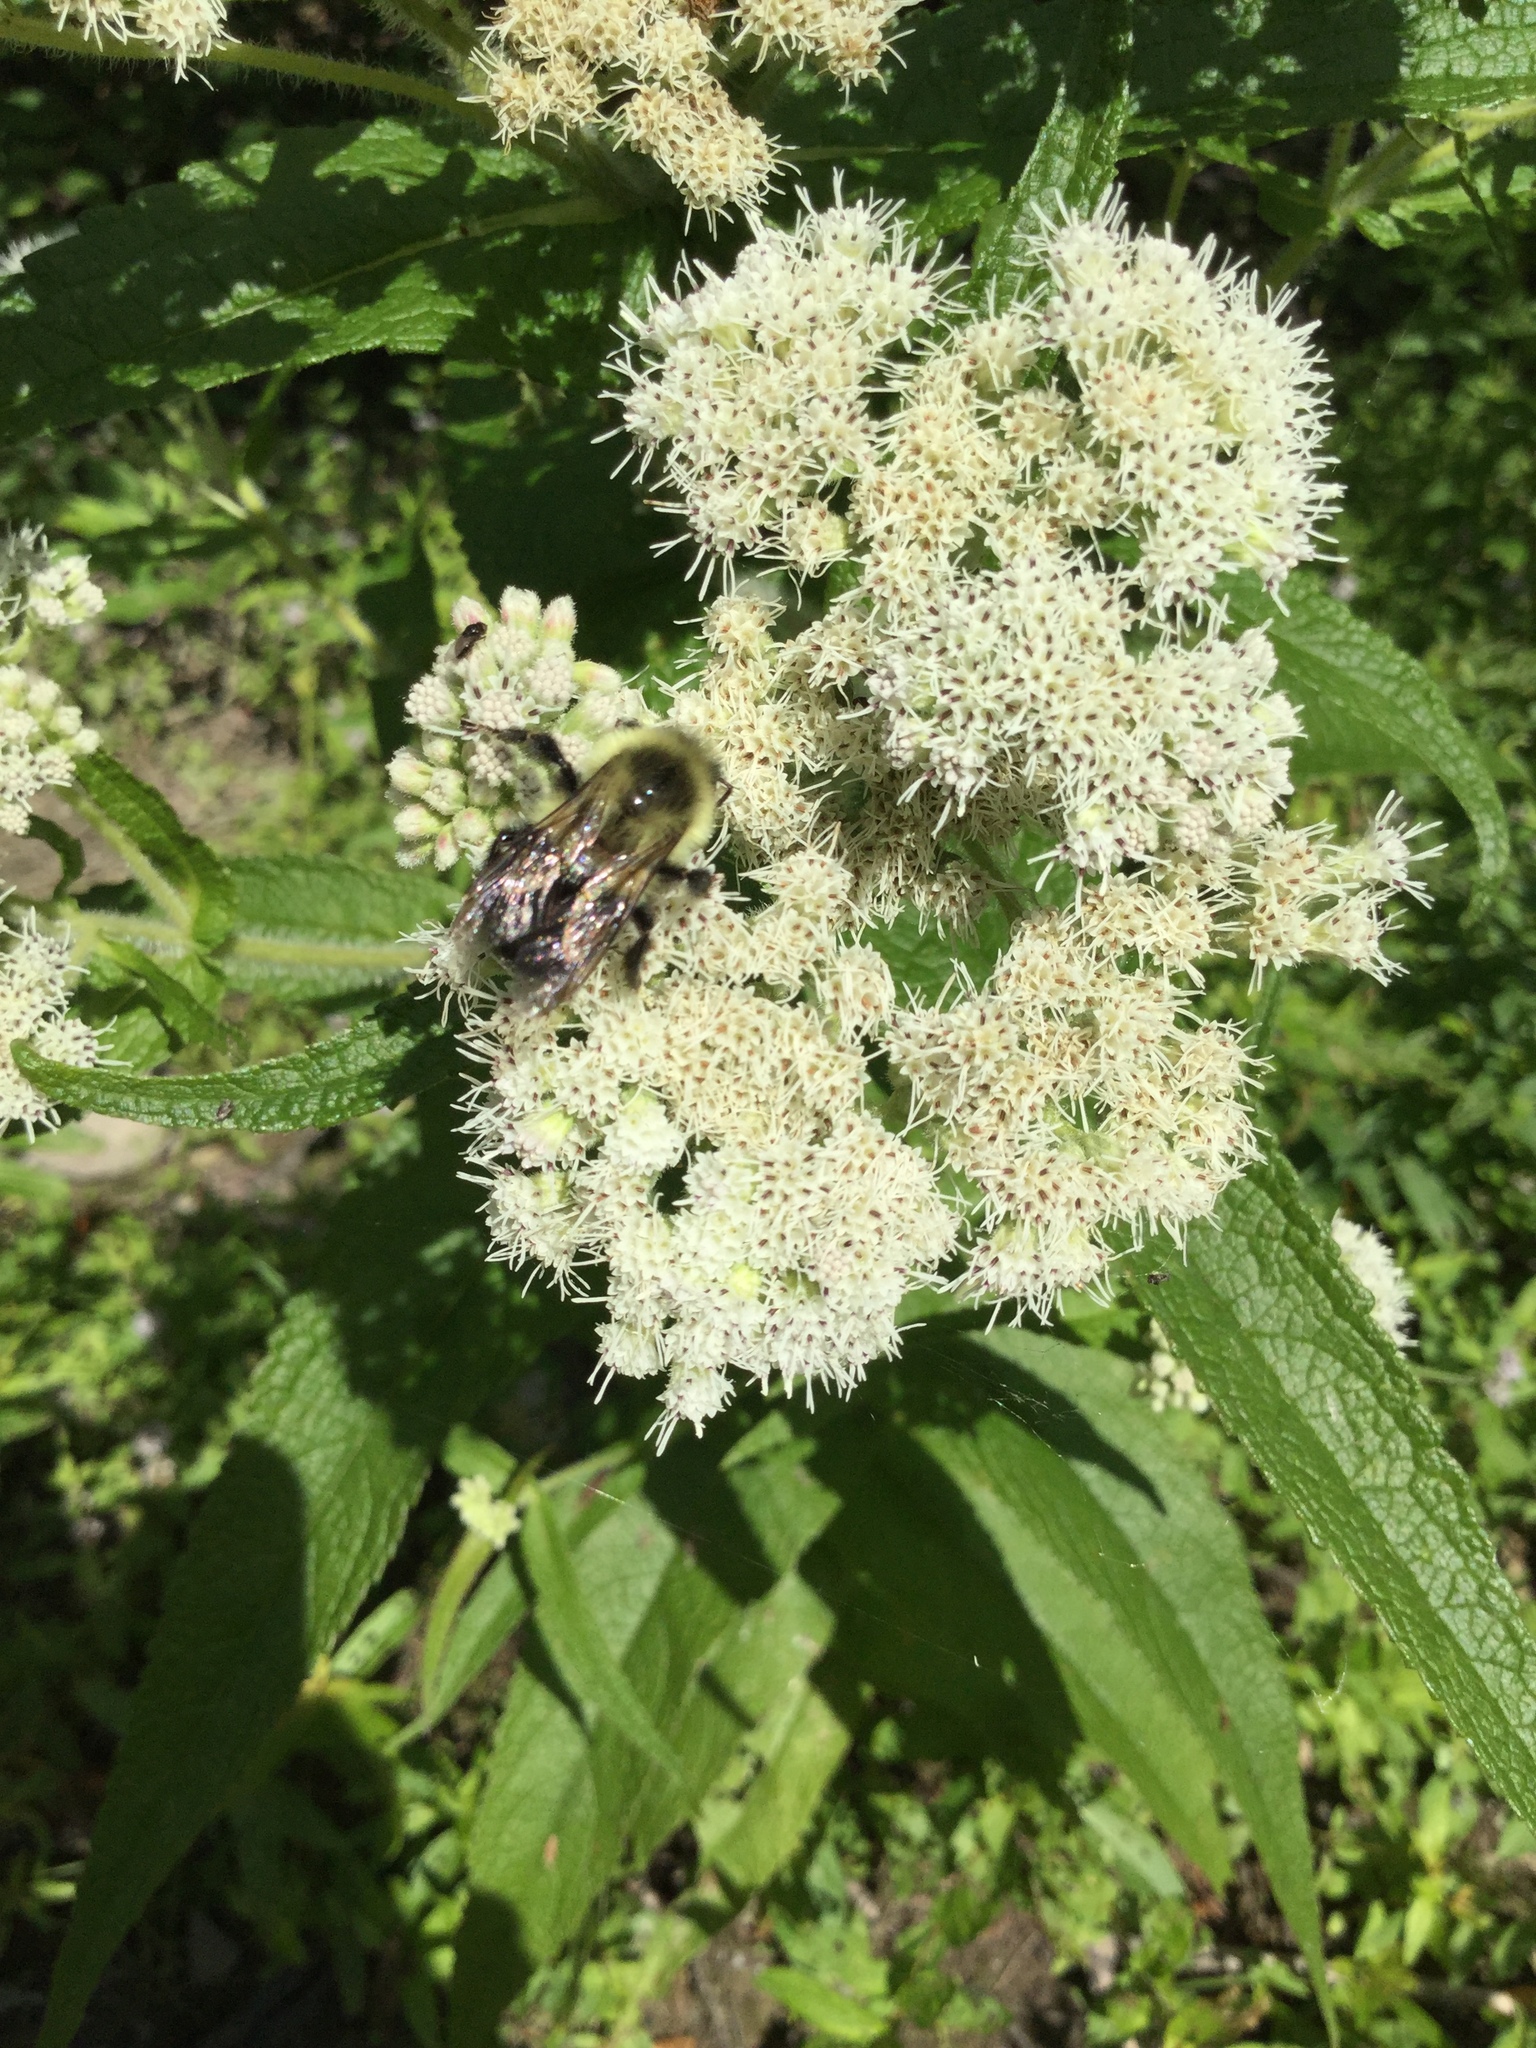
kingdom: Animalia
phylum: Arthropoda
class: Insecta
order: Hymenoptera
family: Apidae
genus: Bombus
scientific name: Bombus impatiens
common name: Common eastern bumble bee
